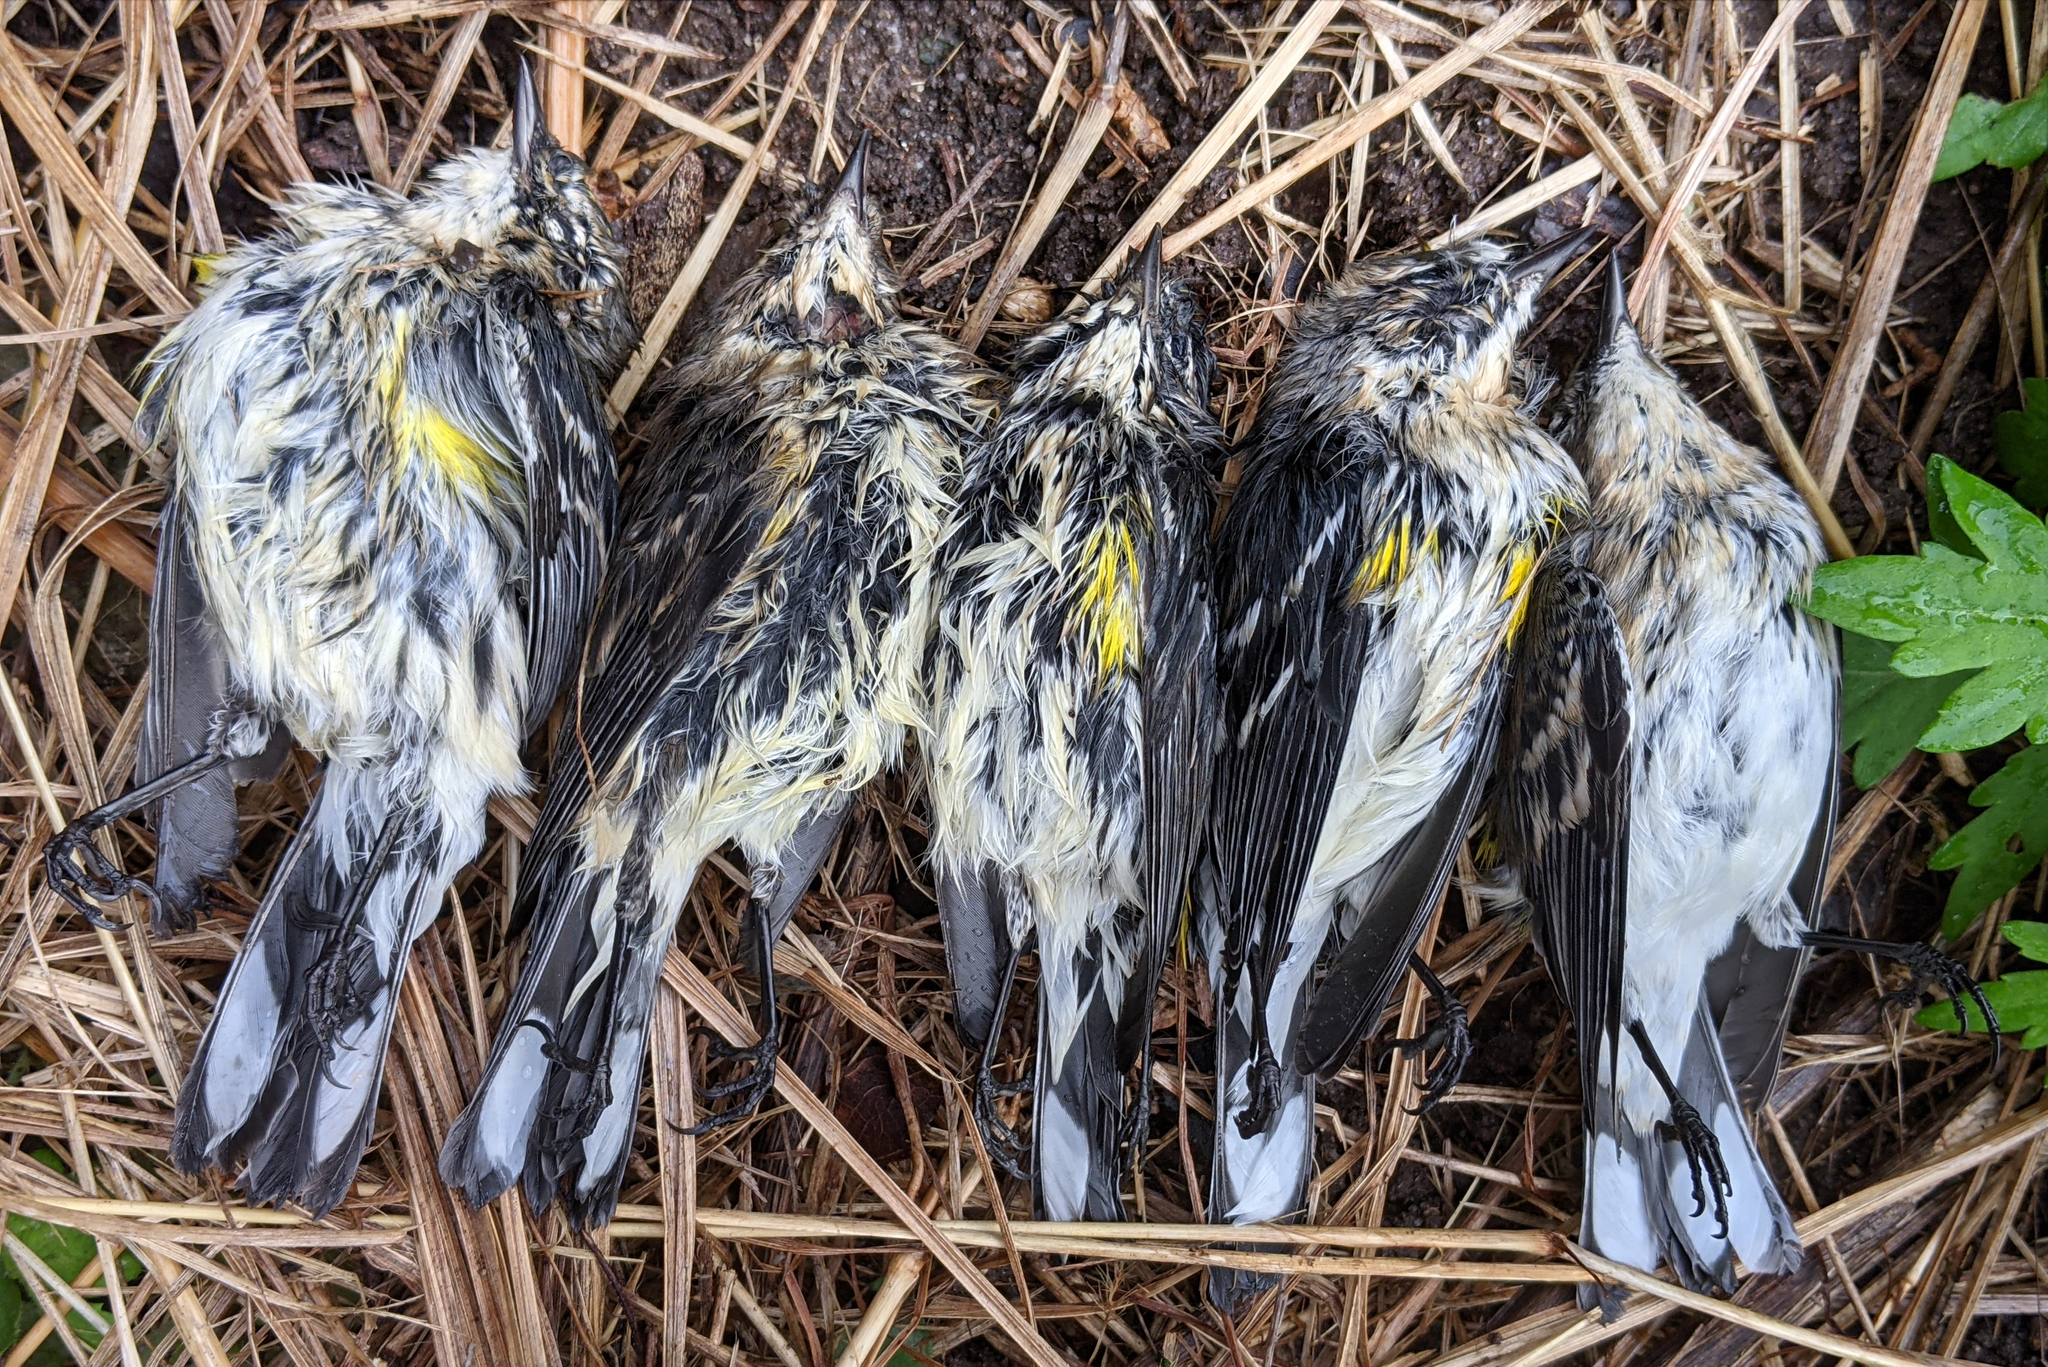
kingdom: Animalia
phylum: Chordata
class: Aves
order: Passeriformes
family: Parulidae
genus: Setophaga
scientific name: Setophaga coronata
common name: Myrtle warbler
